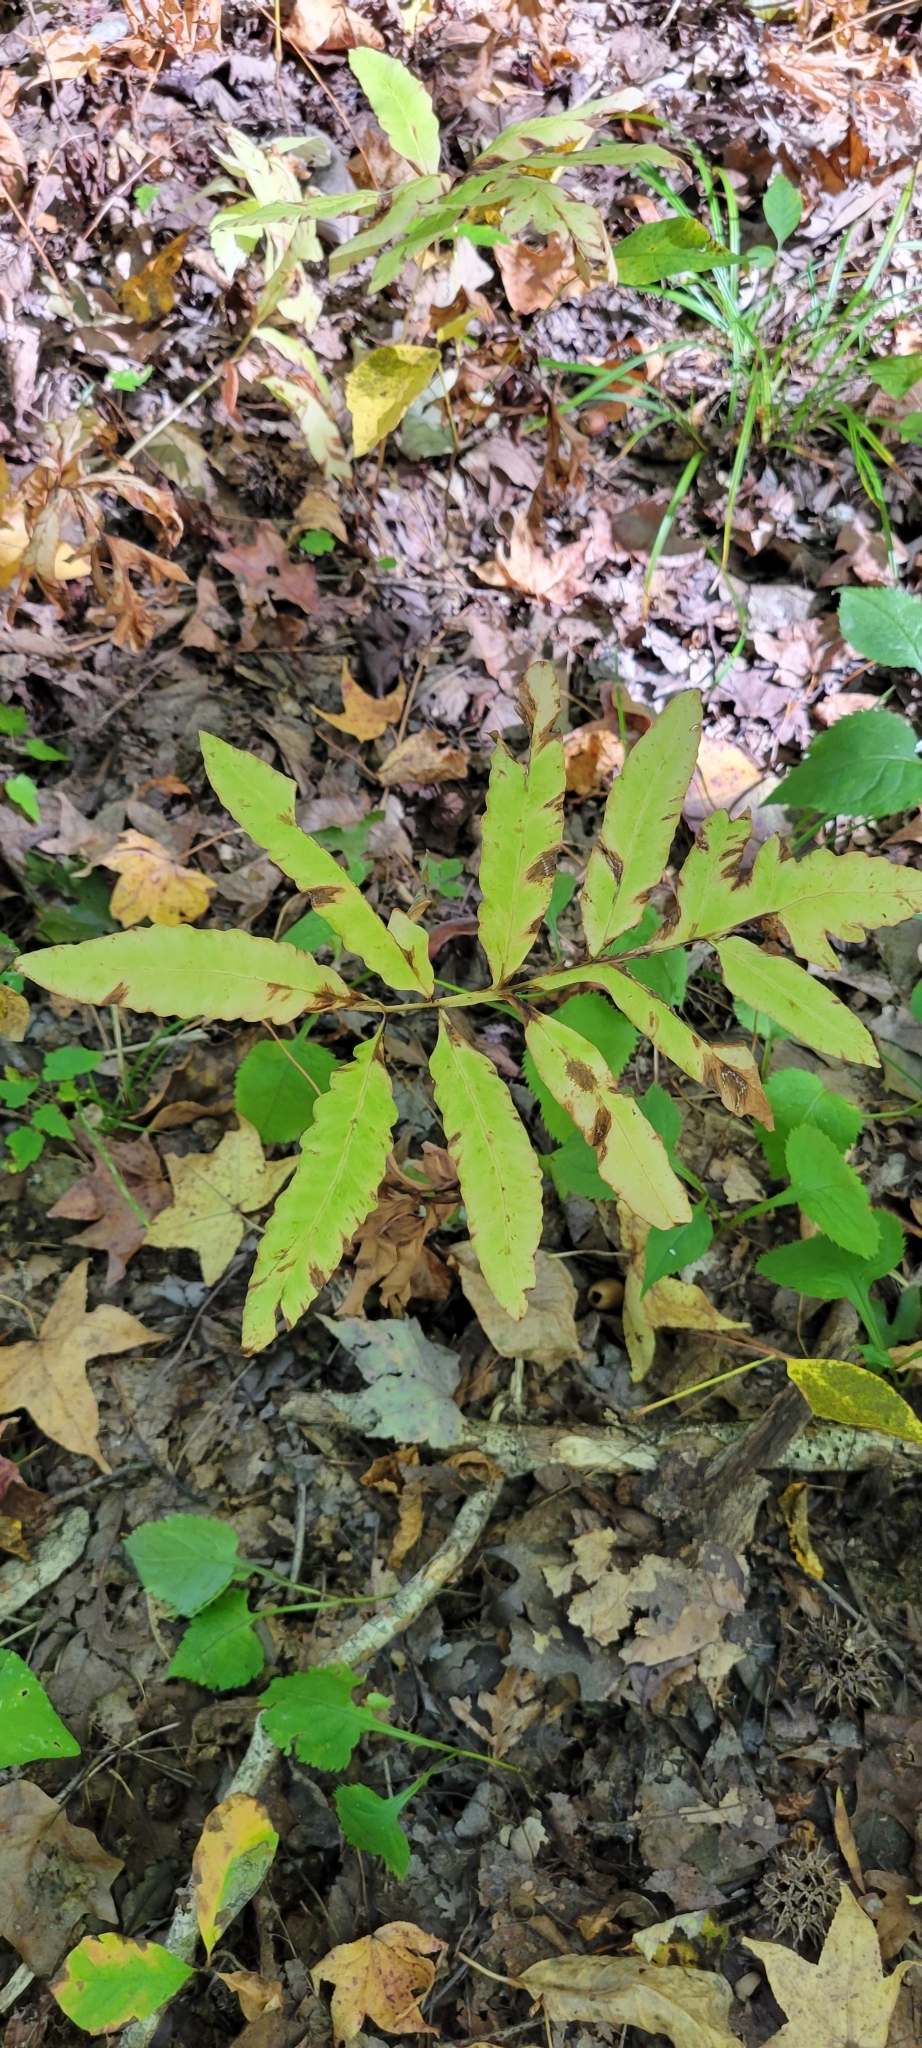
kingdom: Plantae
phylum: Tracheophyta
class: Polypodiopsida
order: Polypodiales
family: Onocleaceae
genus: Onoclea
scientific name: Onoclea sensibilis
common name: Sensitive fern
